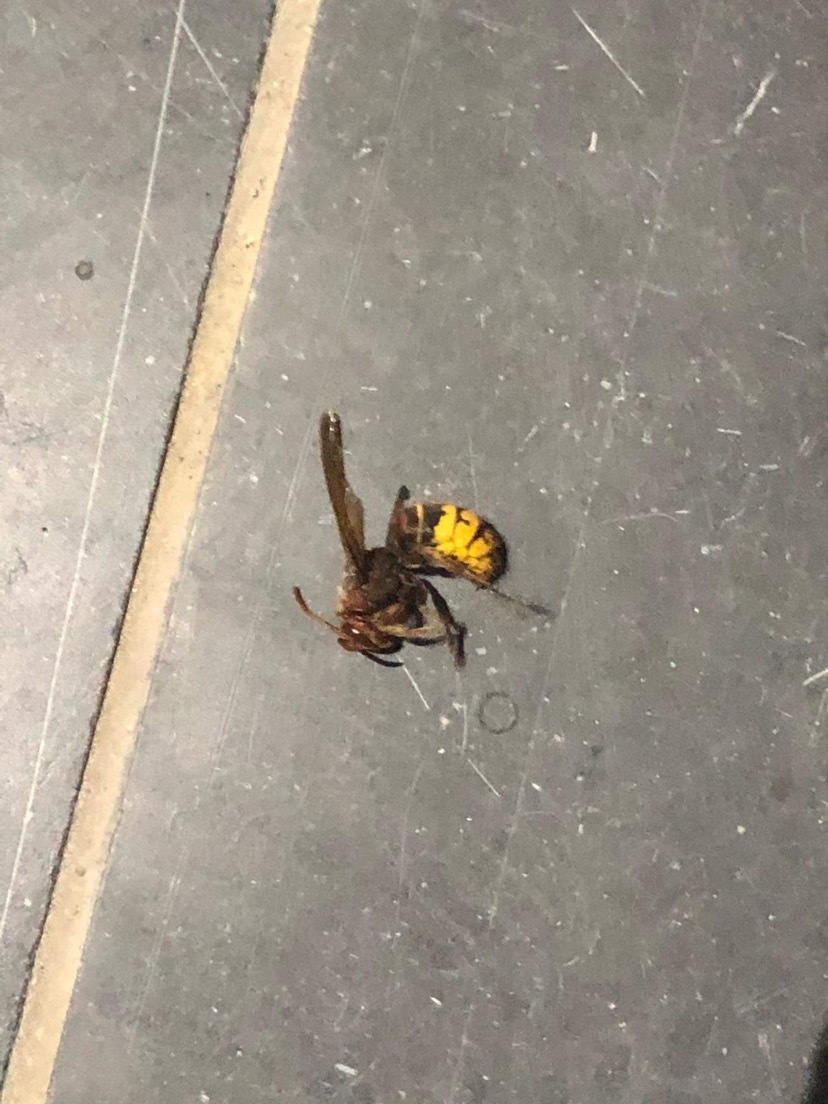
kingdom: Animalia
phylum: Arthropoda
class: Insecta
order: Hymenoptera
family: Vespidae
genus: Vespa
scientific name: Vespa crabro
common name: Hornet
